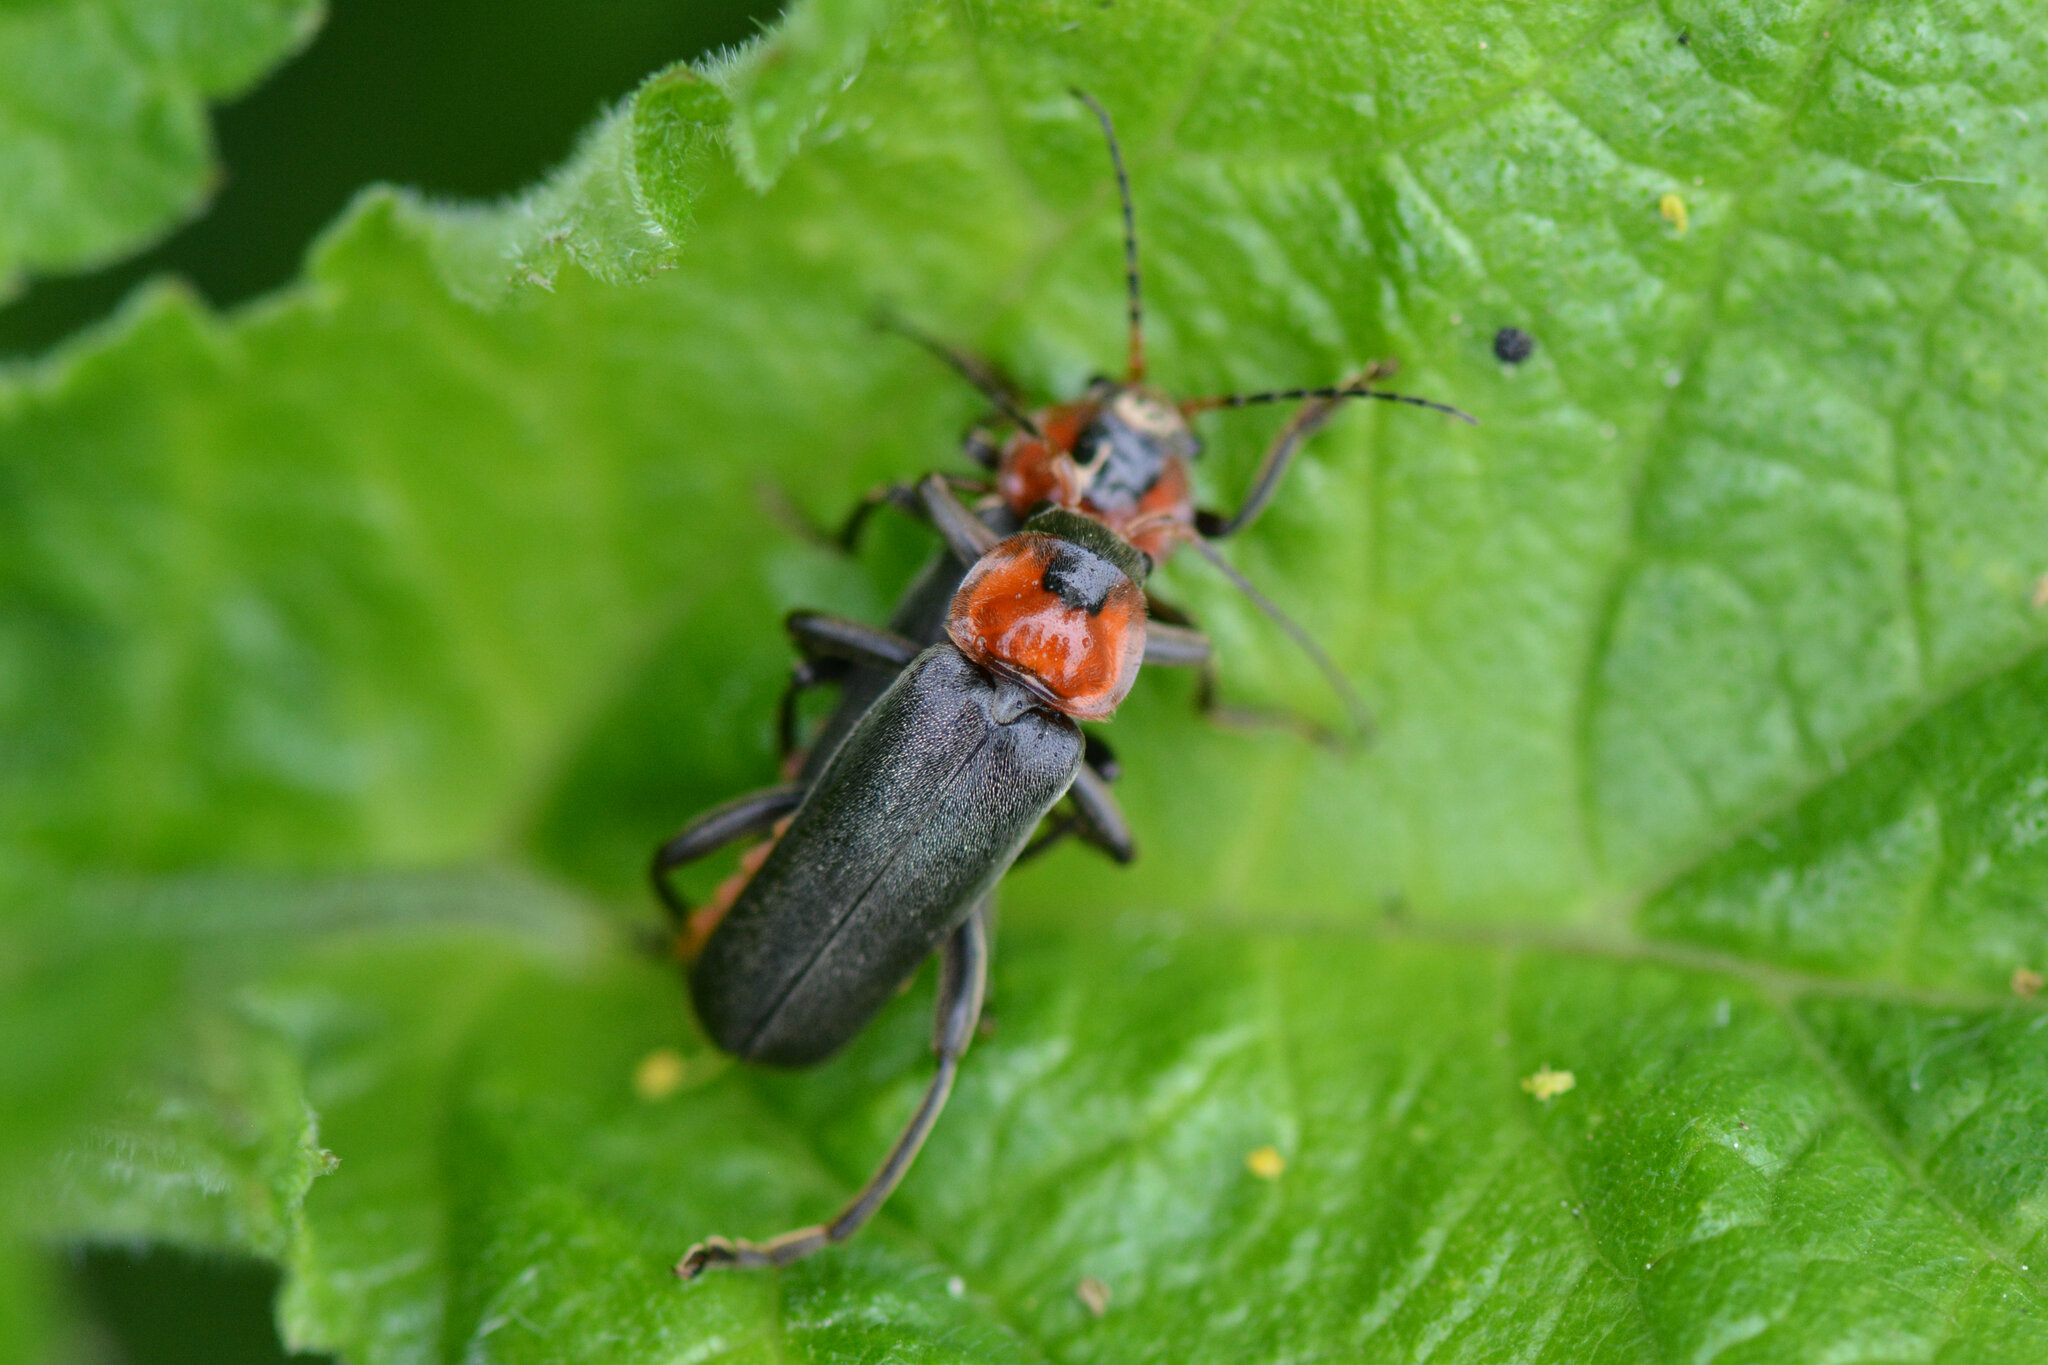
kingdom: Animalia
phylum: Arthropoda
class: Insecta
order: Coleoptera
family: Cantharidae
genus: Cantharis
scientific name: Cantharis fusca
